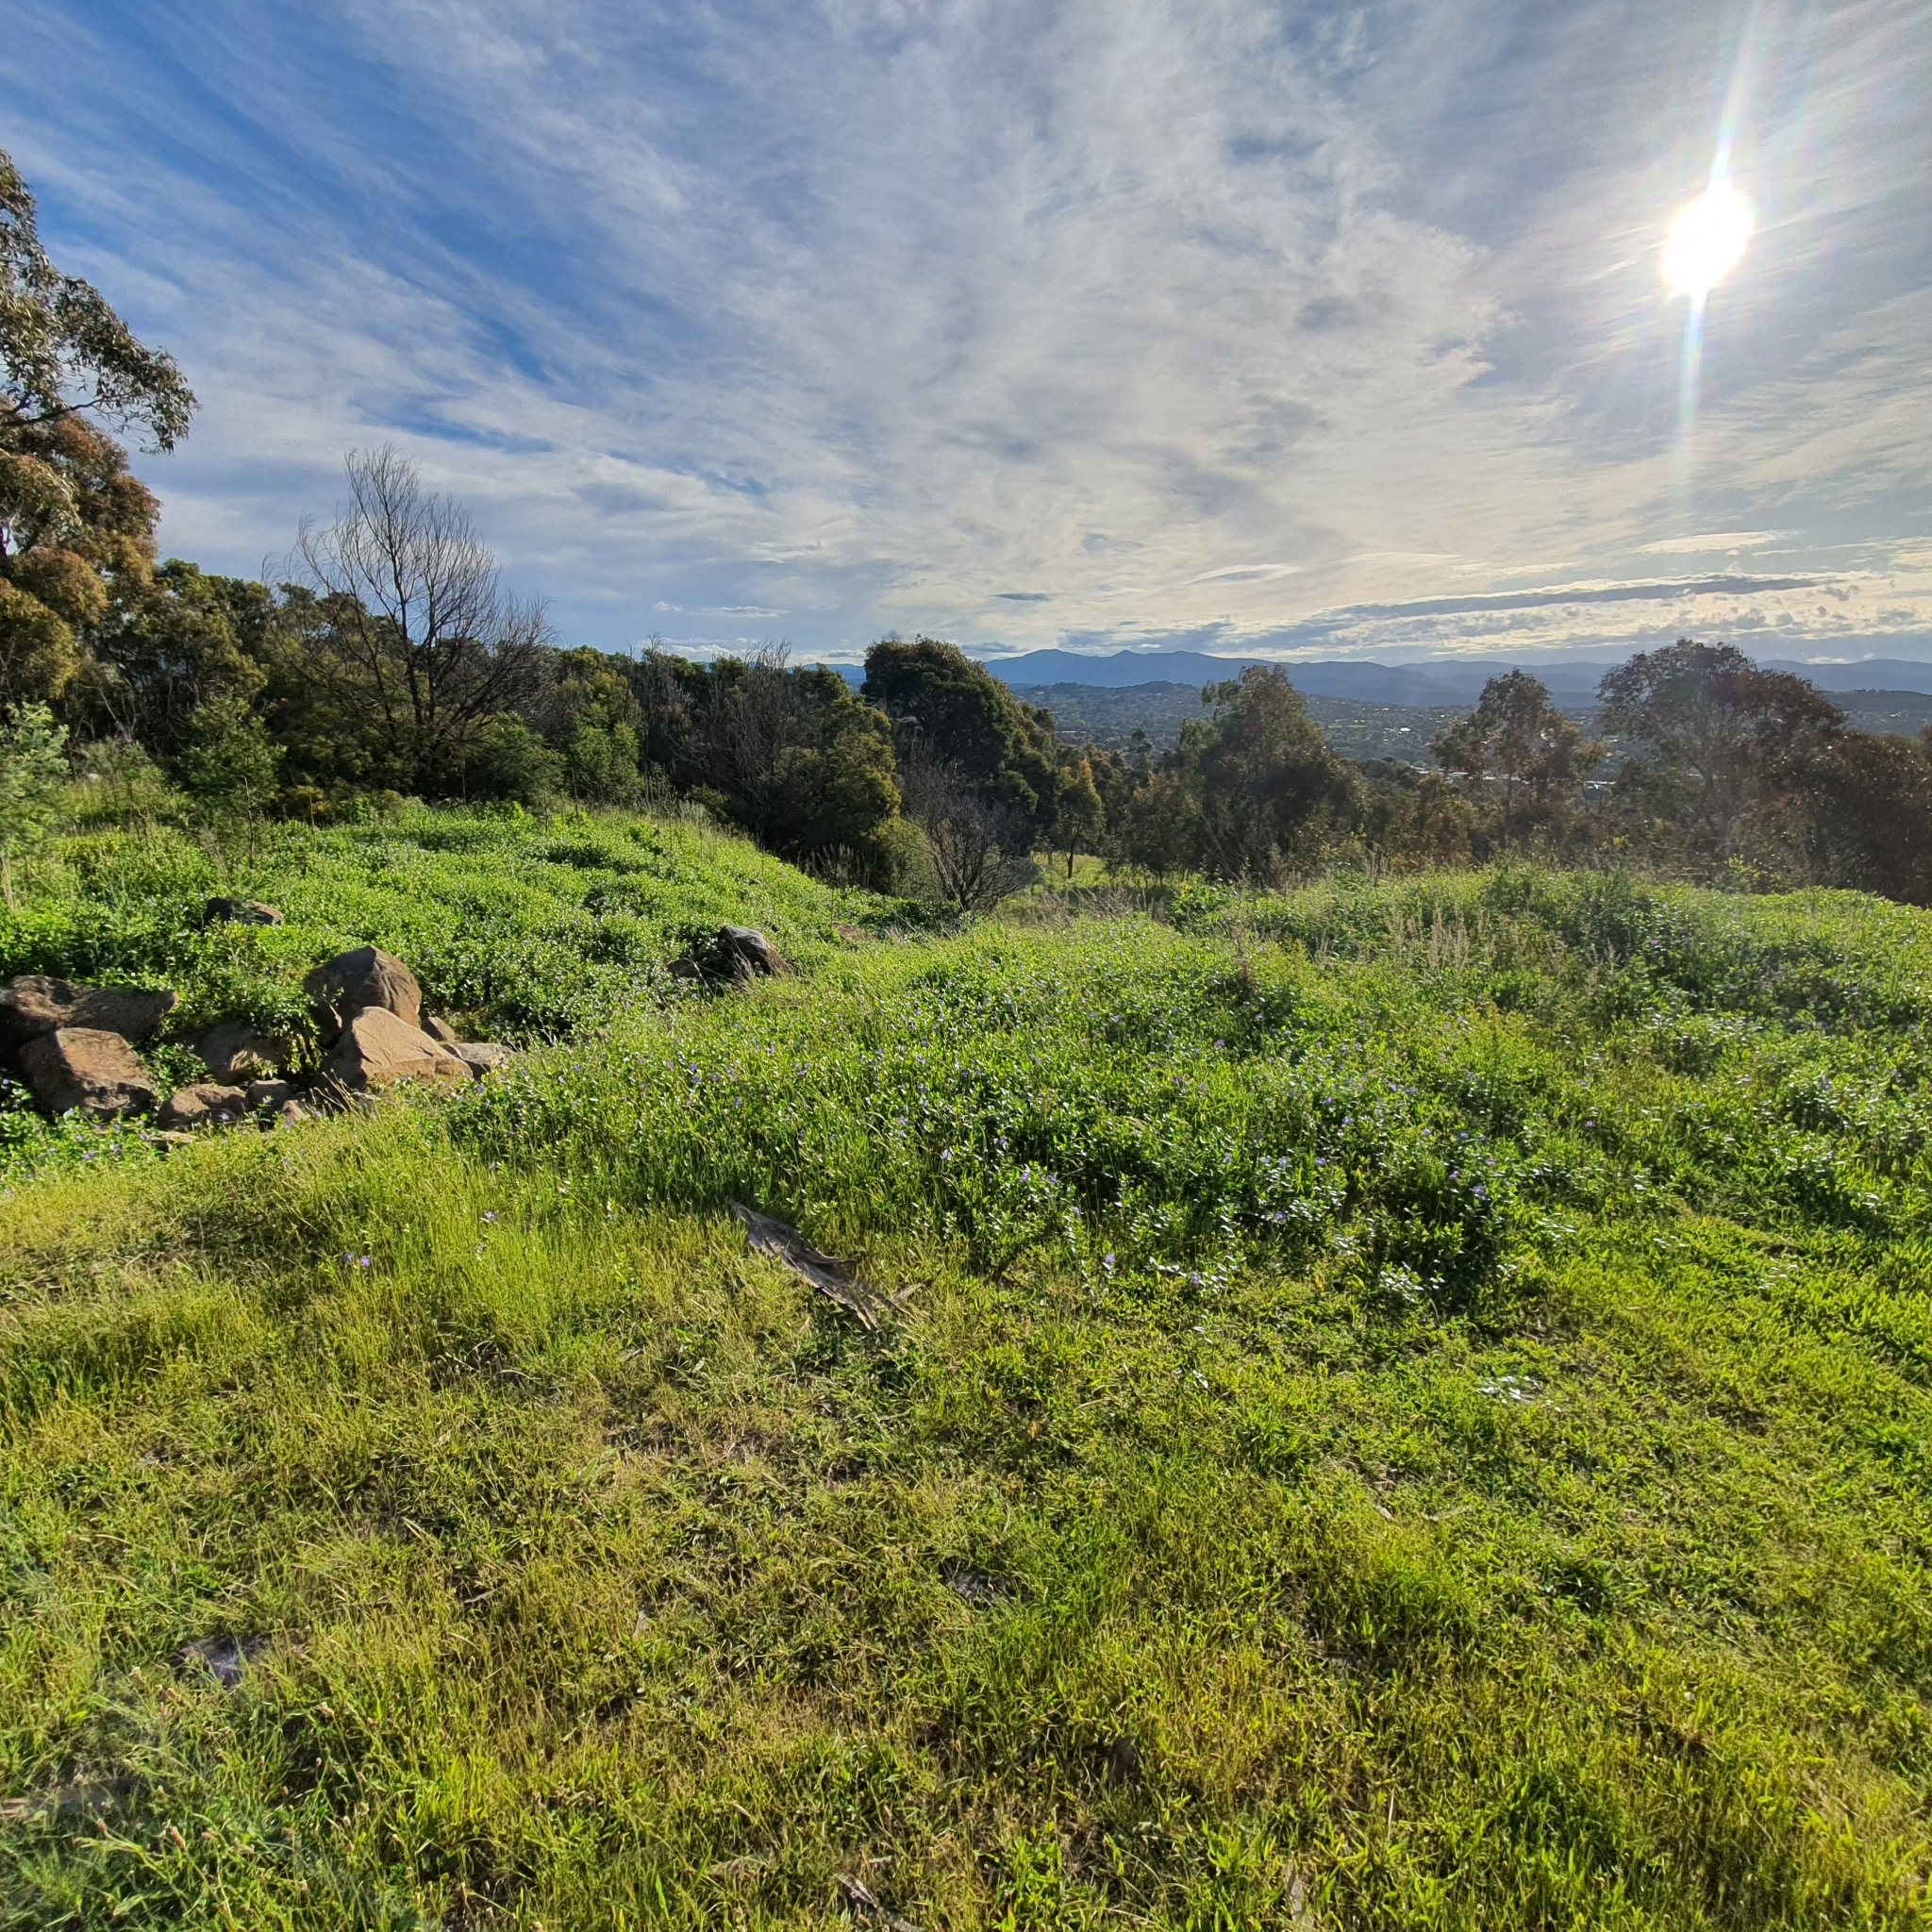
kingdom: Plantae
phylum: Tracheophyta
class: Magnoliopsida
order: Gentianales
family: Apocynaceae
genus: Vinca
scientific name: Vinca major
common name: Greater periwinkle
